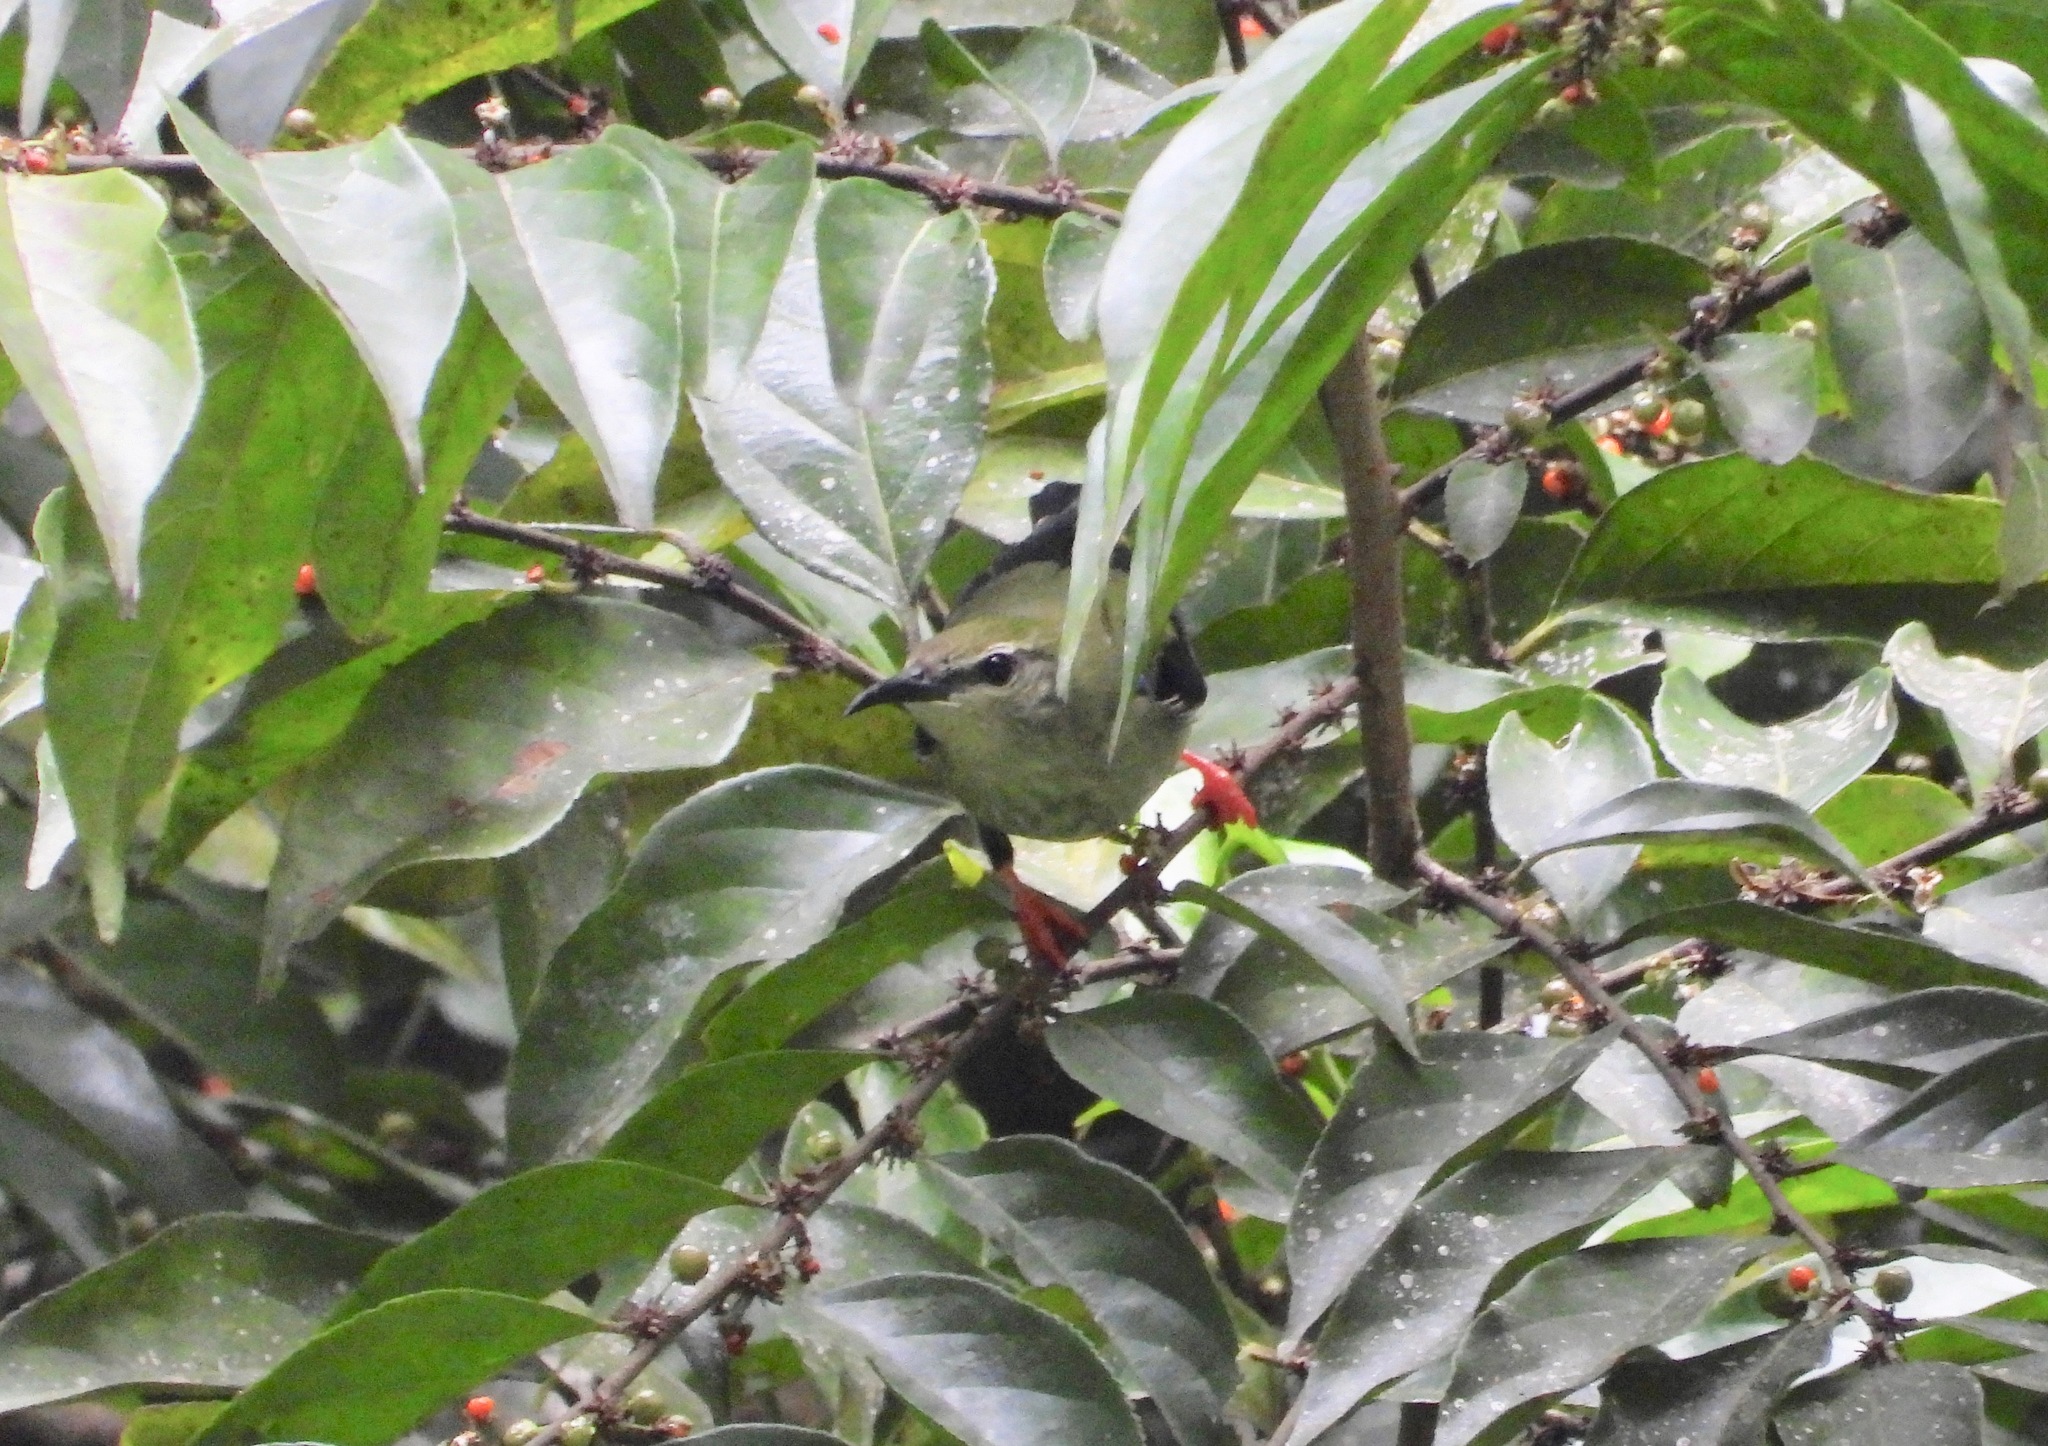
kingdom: Animalia
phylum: Chordata
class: Aves
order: Passeriformes
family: Thraupidae
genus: Cyanerpes
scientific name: Cyanerpes cyaneus
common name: Red-legged honeycreeper
